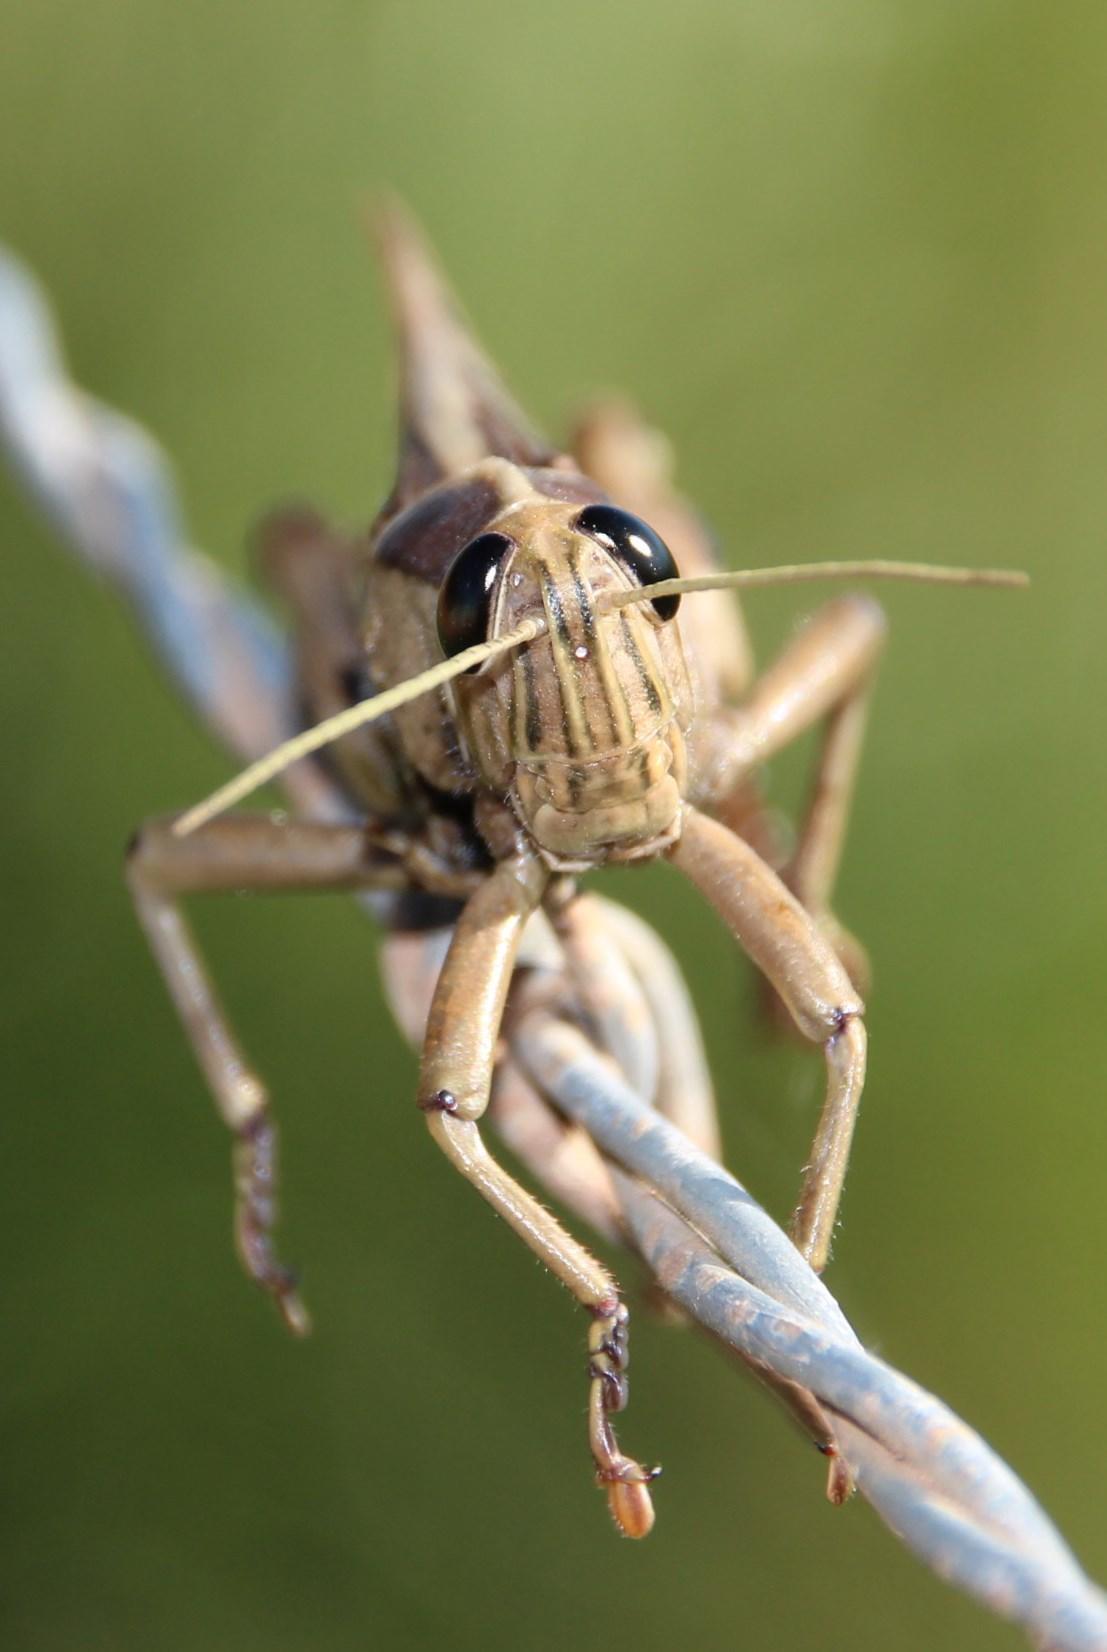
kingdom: Animalia
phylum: Arthropoda
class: Insecta
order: Orthoptera
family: Acrididae
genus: Acanthacris
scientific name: Acanthacris ruficornis
